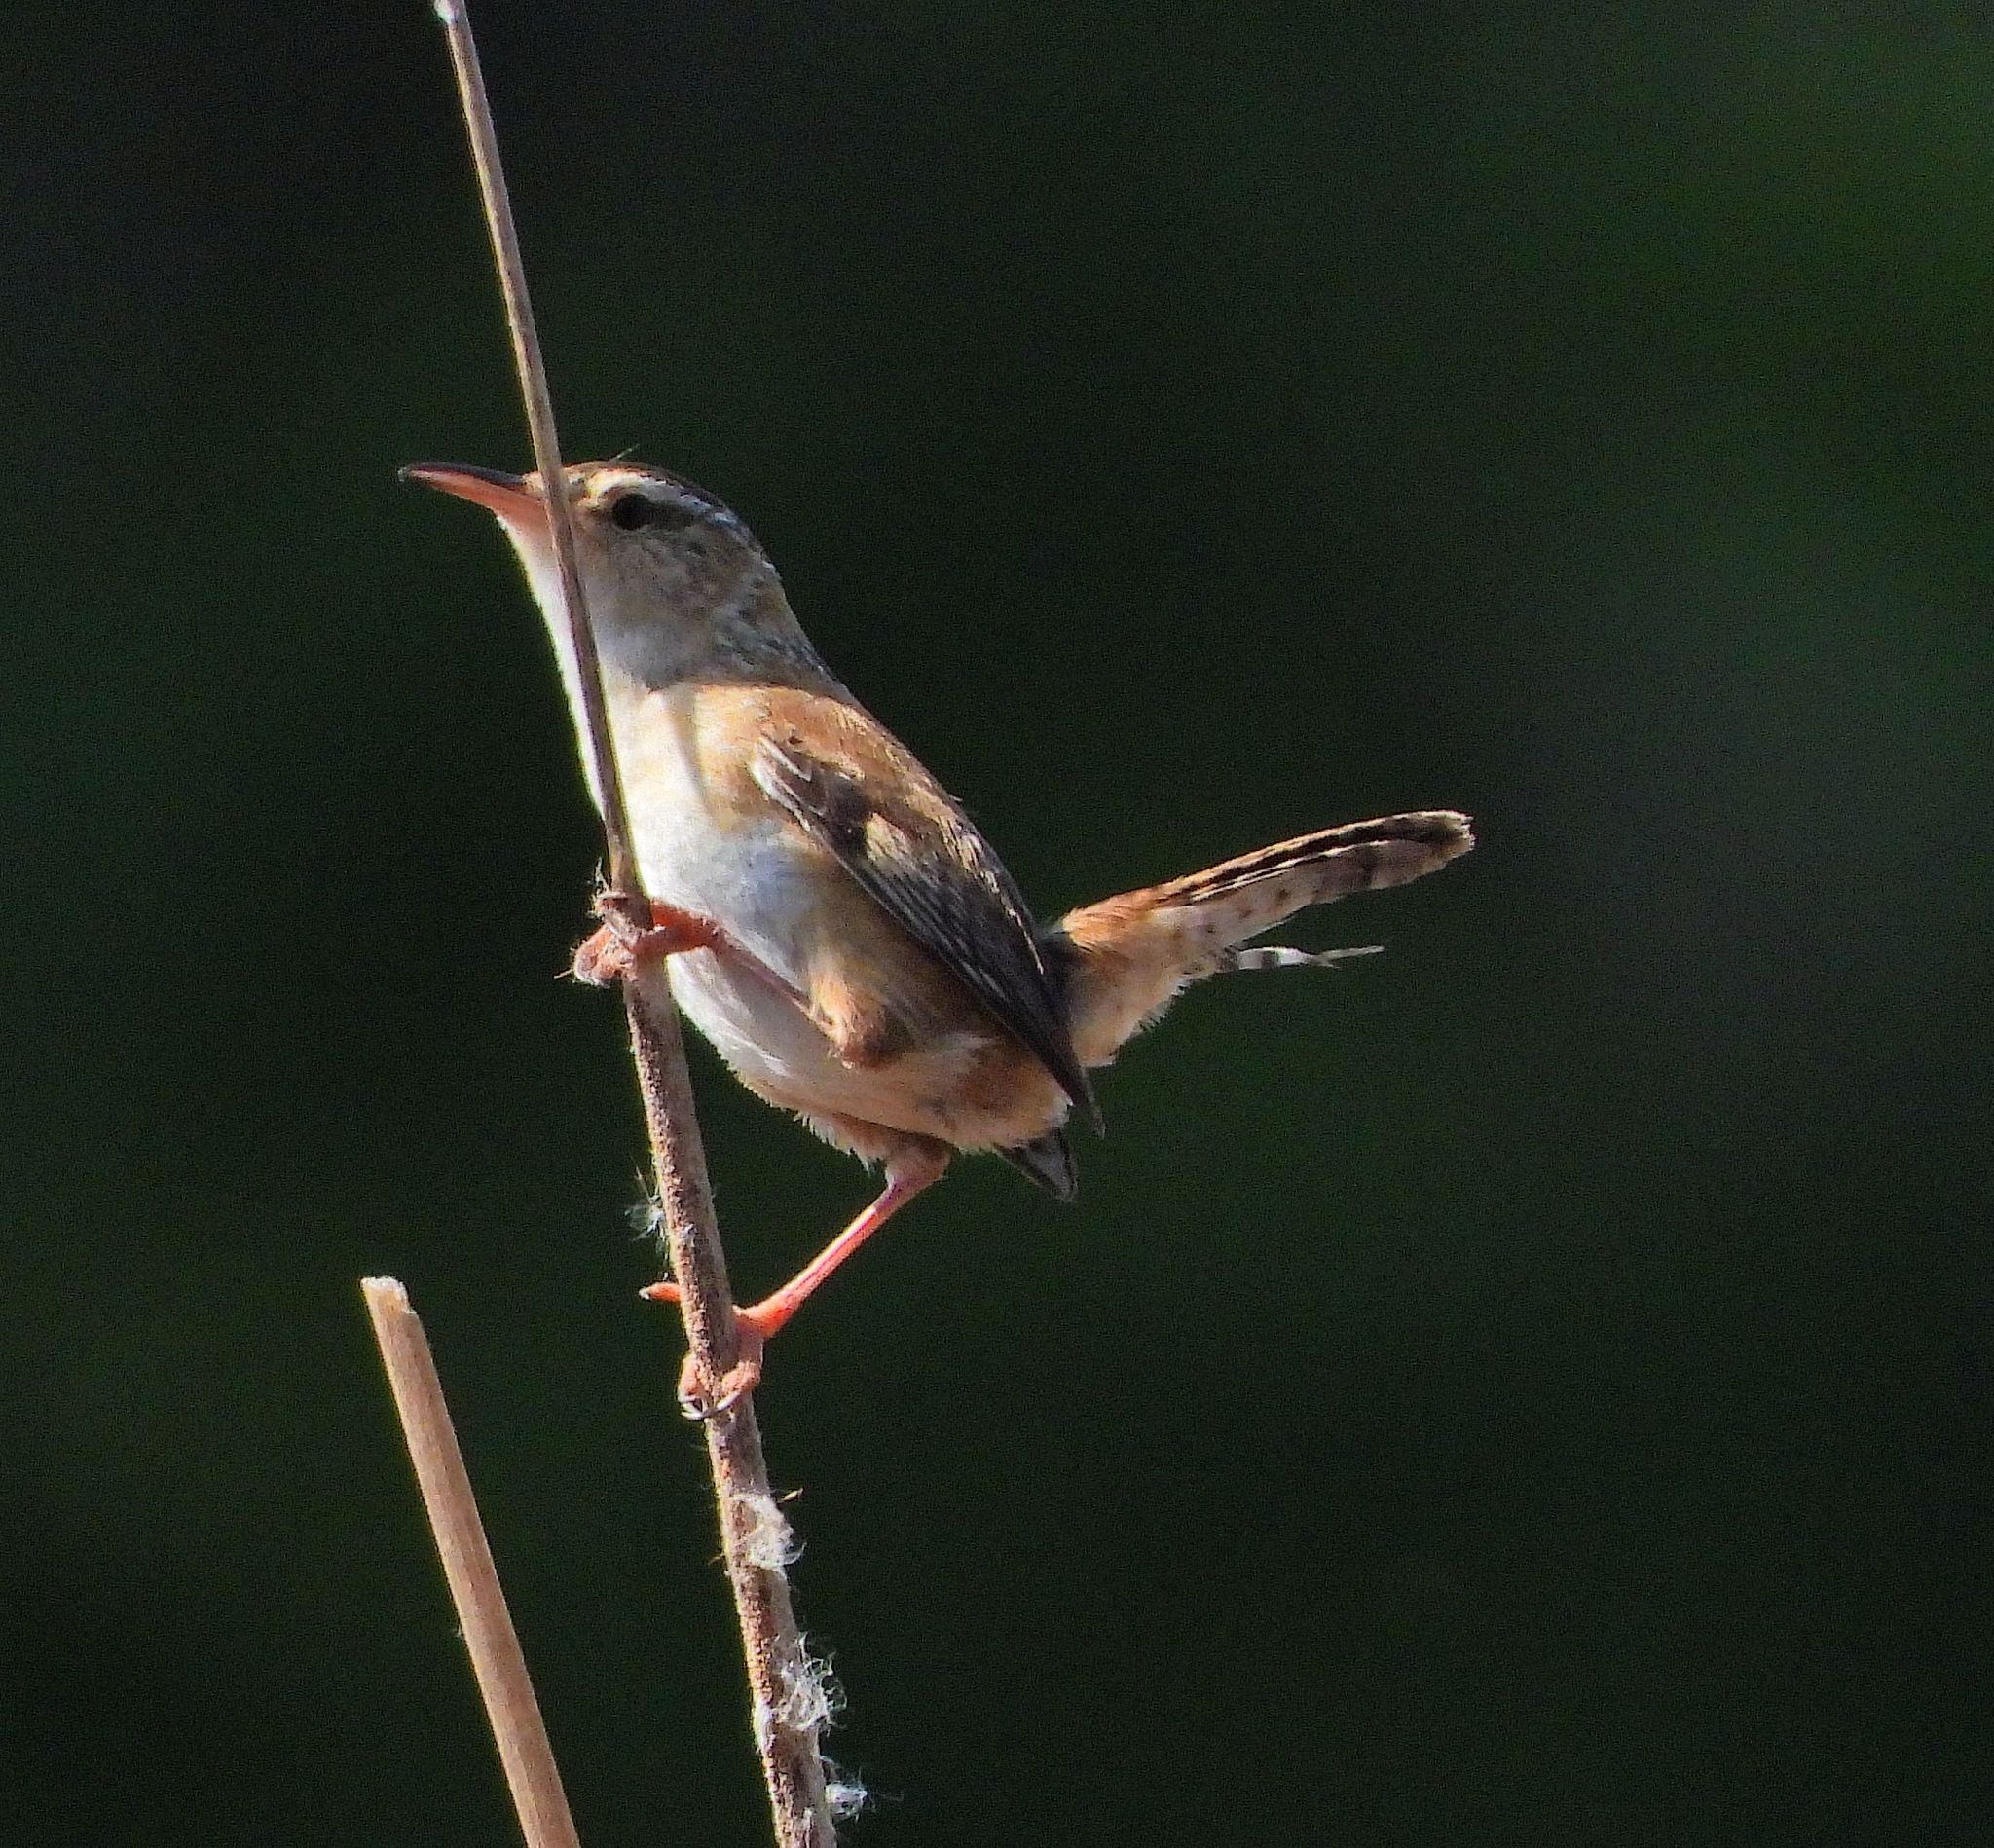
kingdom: Animalia
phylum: Chordata
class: Aves
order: Passeriformes
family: Troglodytidae
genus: Cistothorus
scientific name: Cistothorus palustris
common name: Marsh wren
